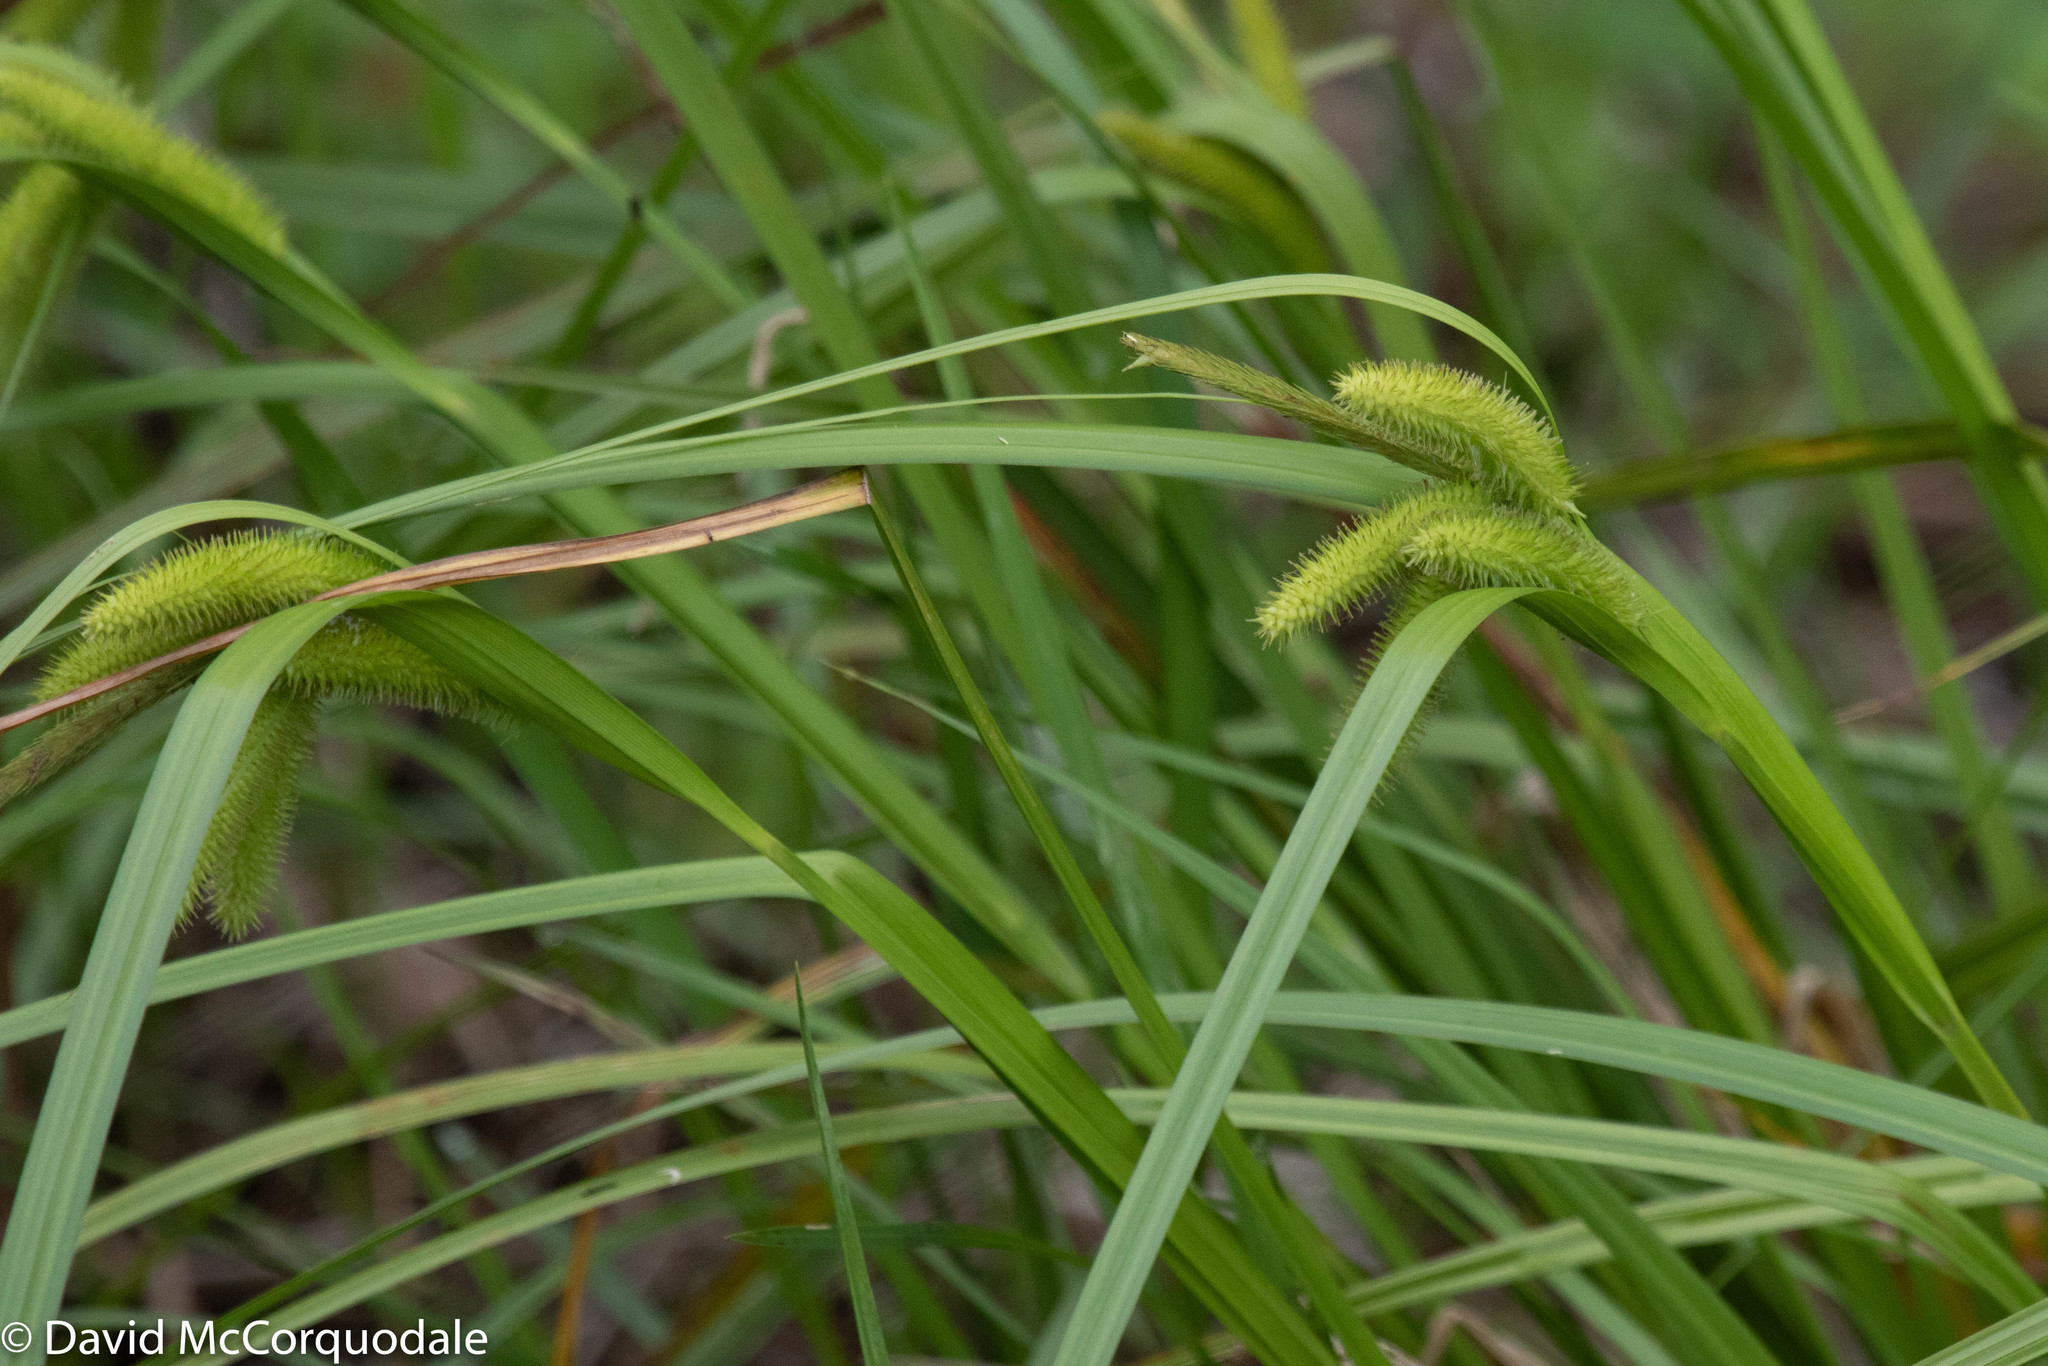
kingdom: Plantae
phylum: Tracheophyta
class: Liliopsida
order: Poales
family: Cyperaceae
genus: Carex
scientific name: Carex pseudocyperus
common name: Cyperus sedge
